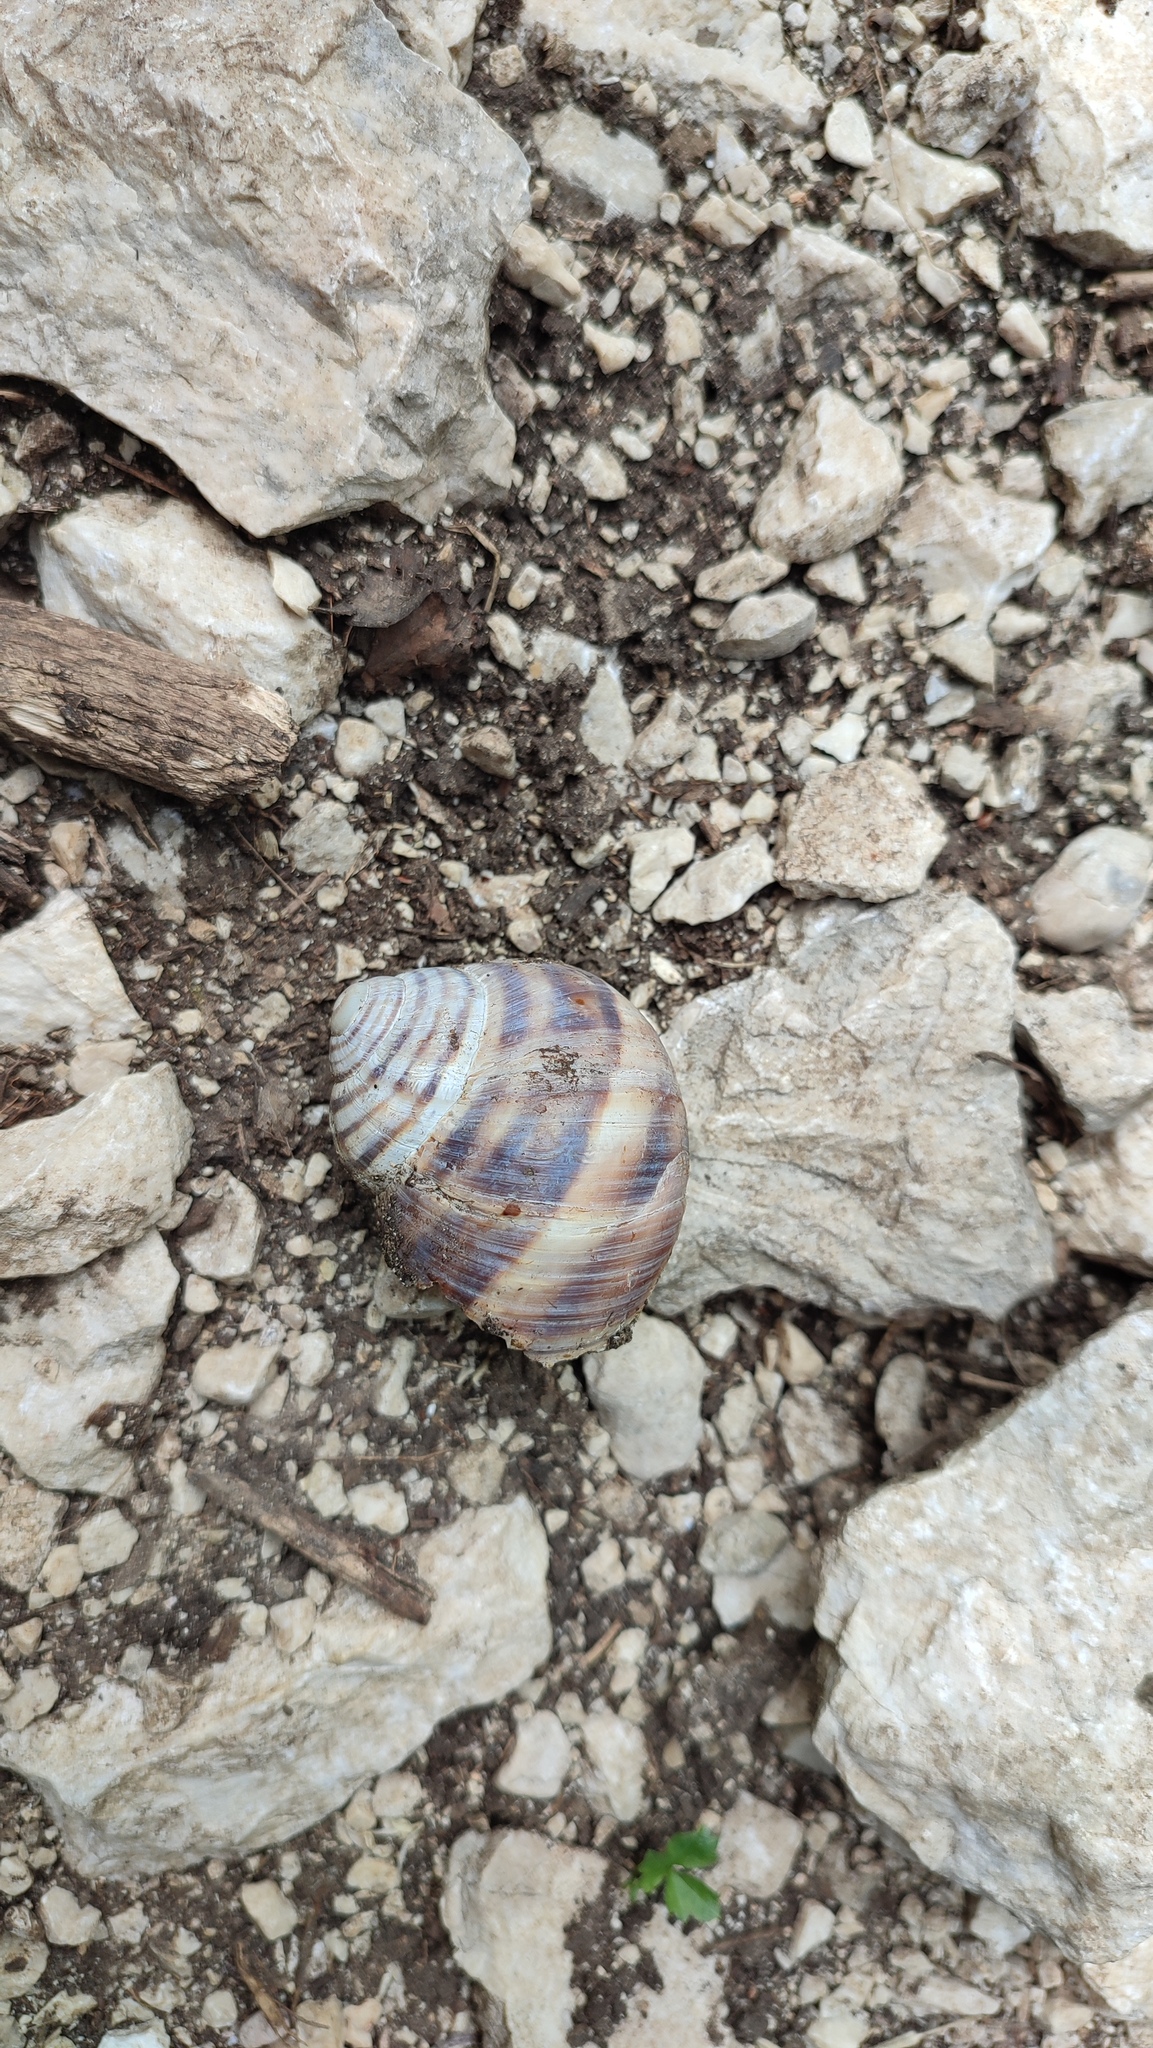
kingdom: Animalia
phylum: Mollusca
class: Gastropoda
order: Stylommatophora
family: Helicidae
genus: Helix
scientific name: Helix secernenda
